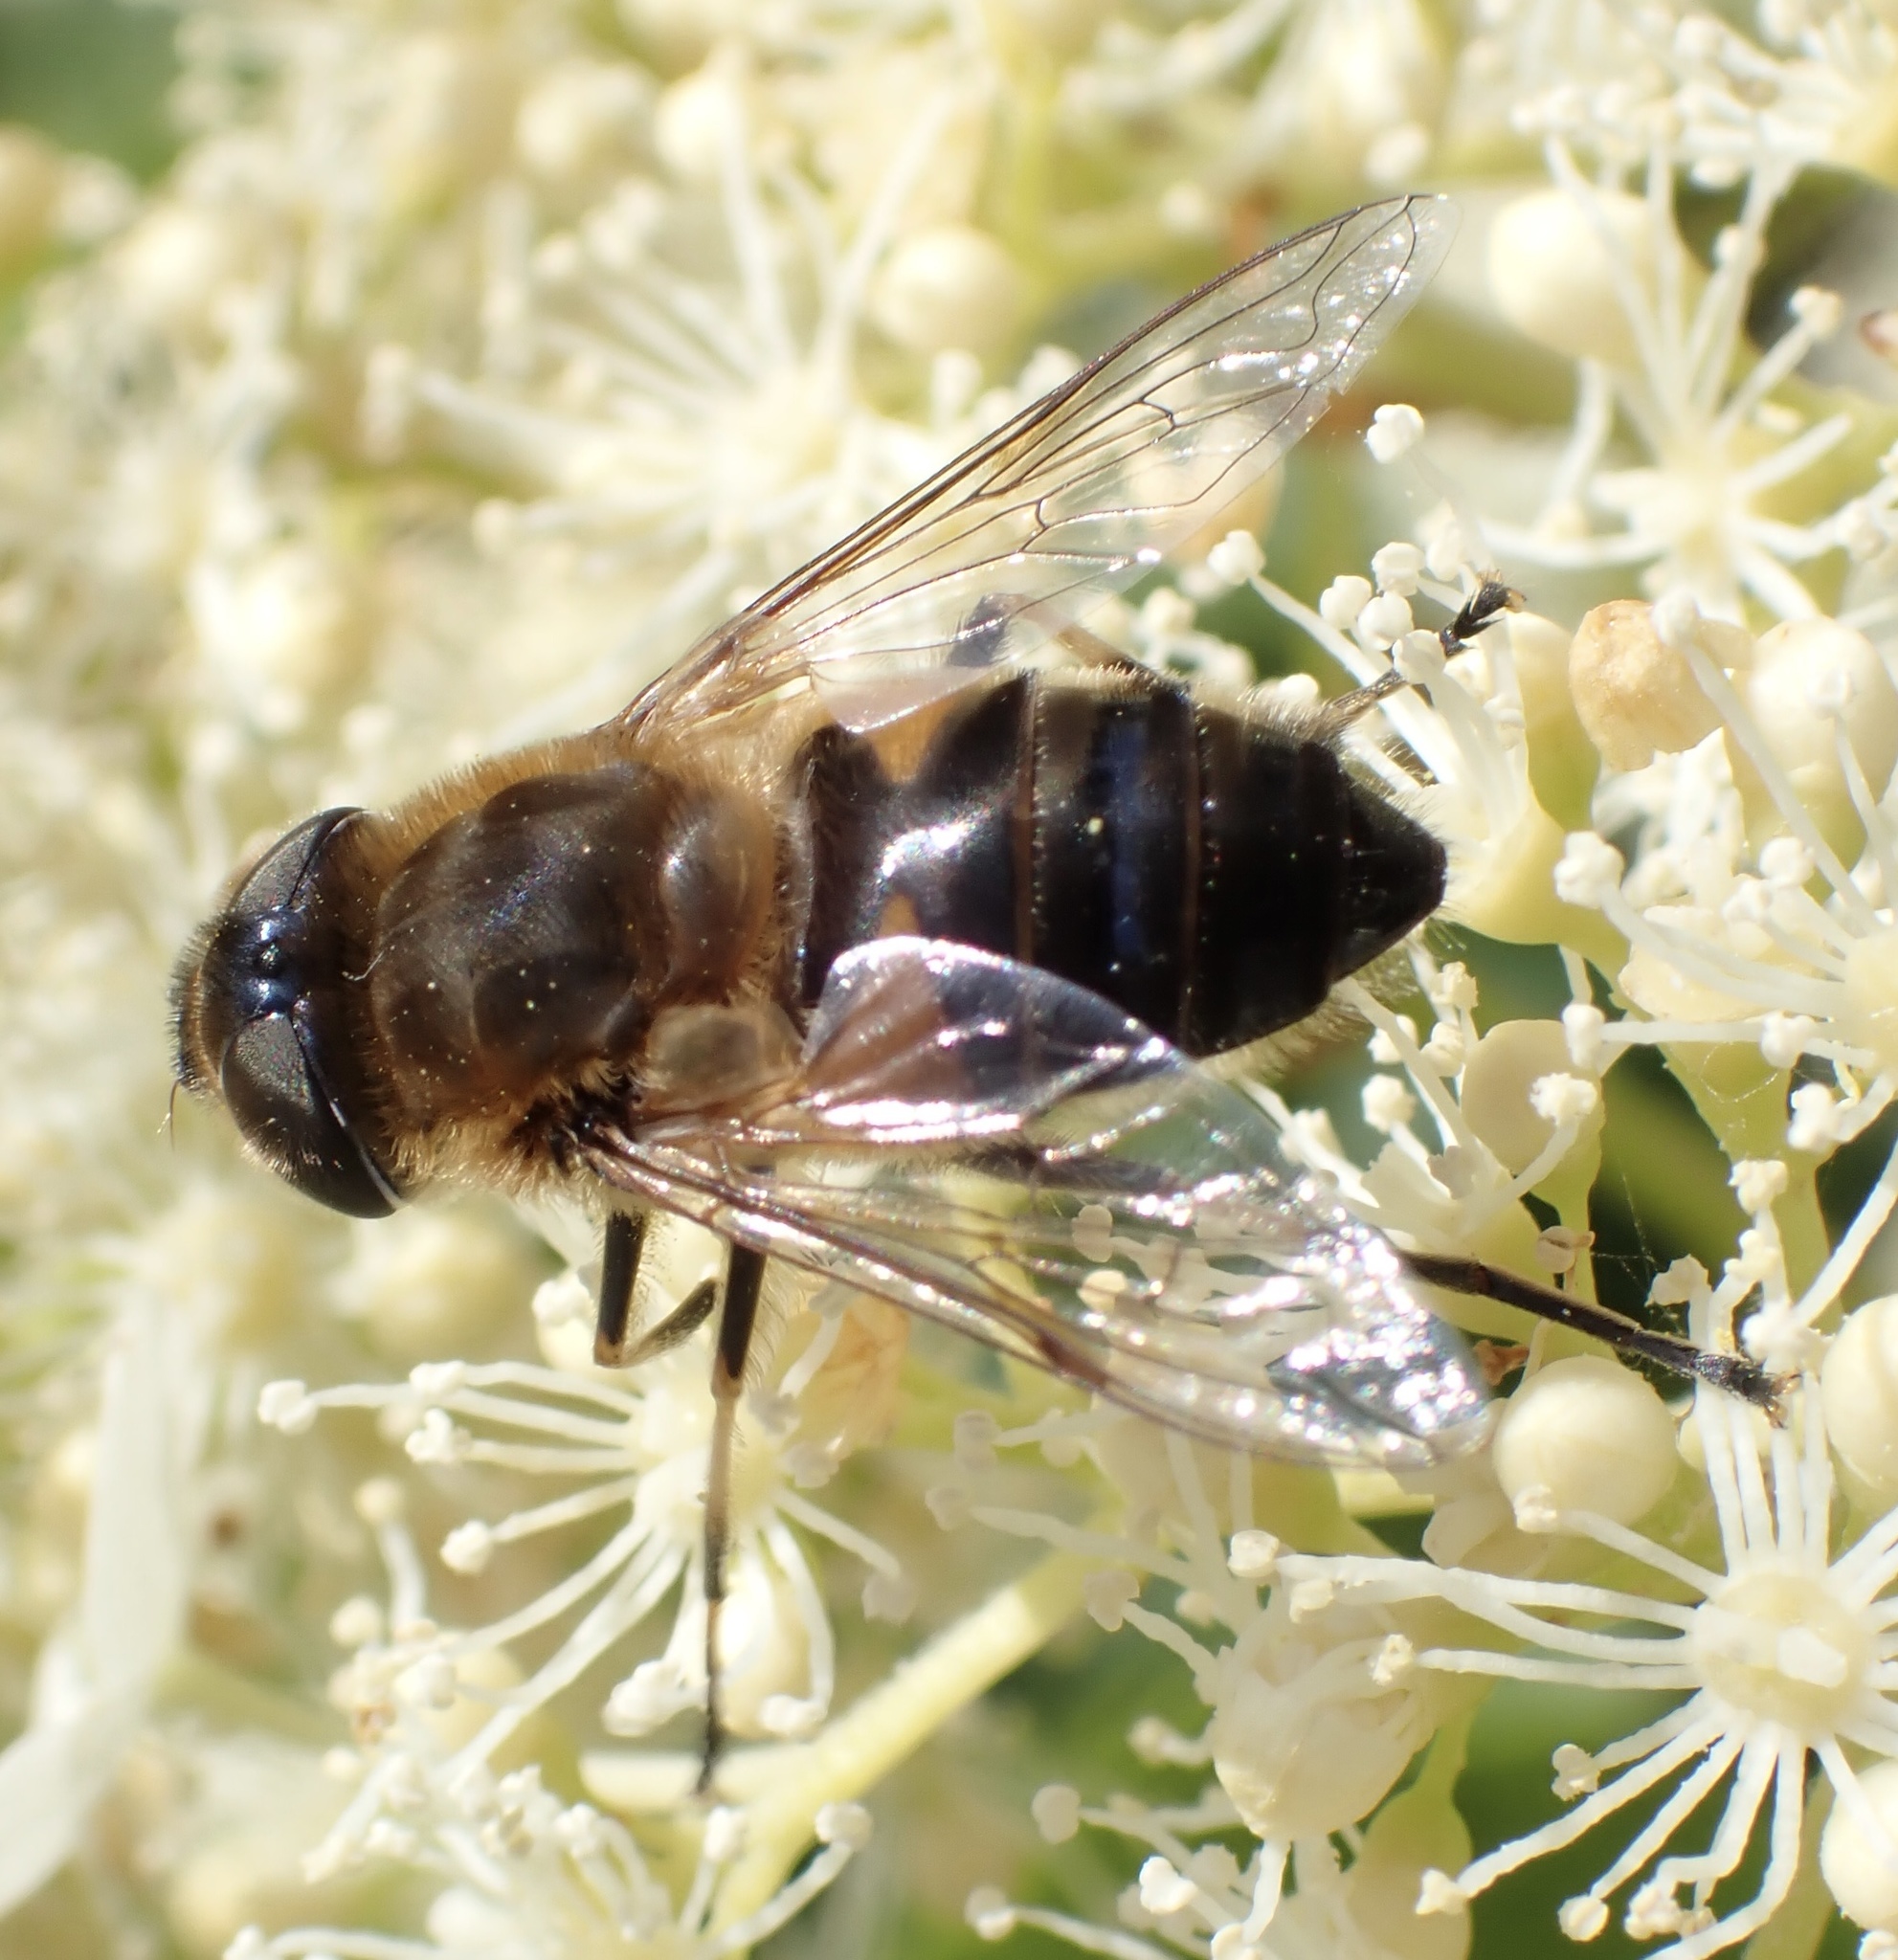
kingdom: Animalia
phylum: Arthropoda
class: Insecta
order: Diptera
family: Syrphidae
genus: Eristalis
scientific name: Eristalis pertinax
